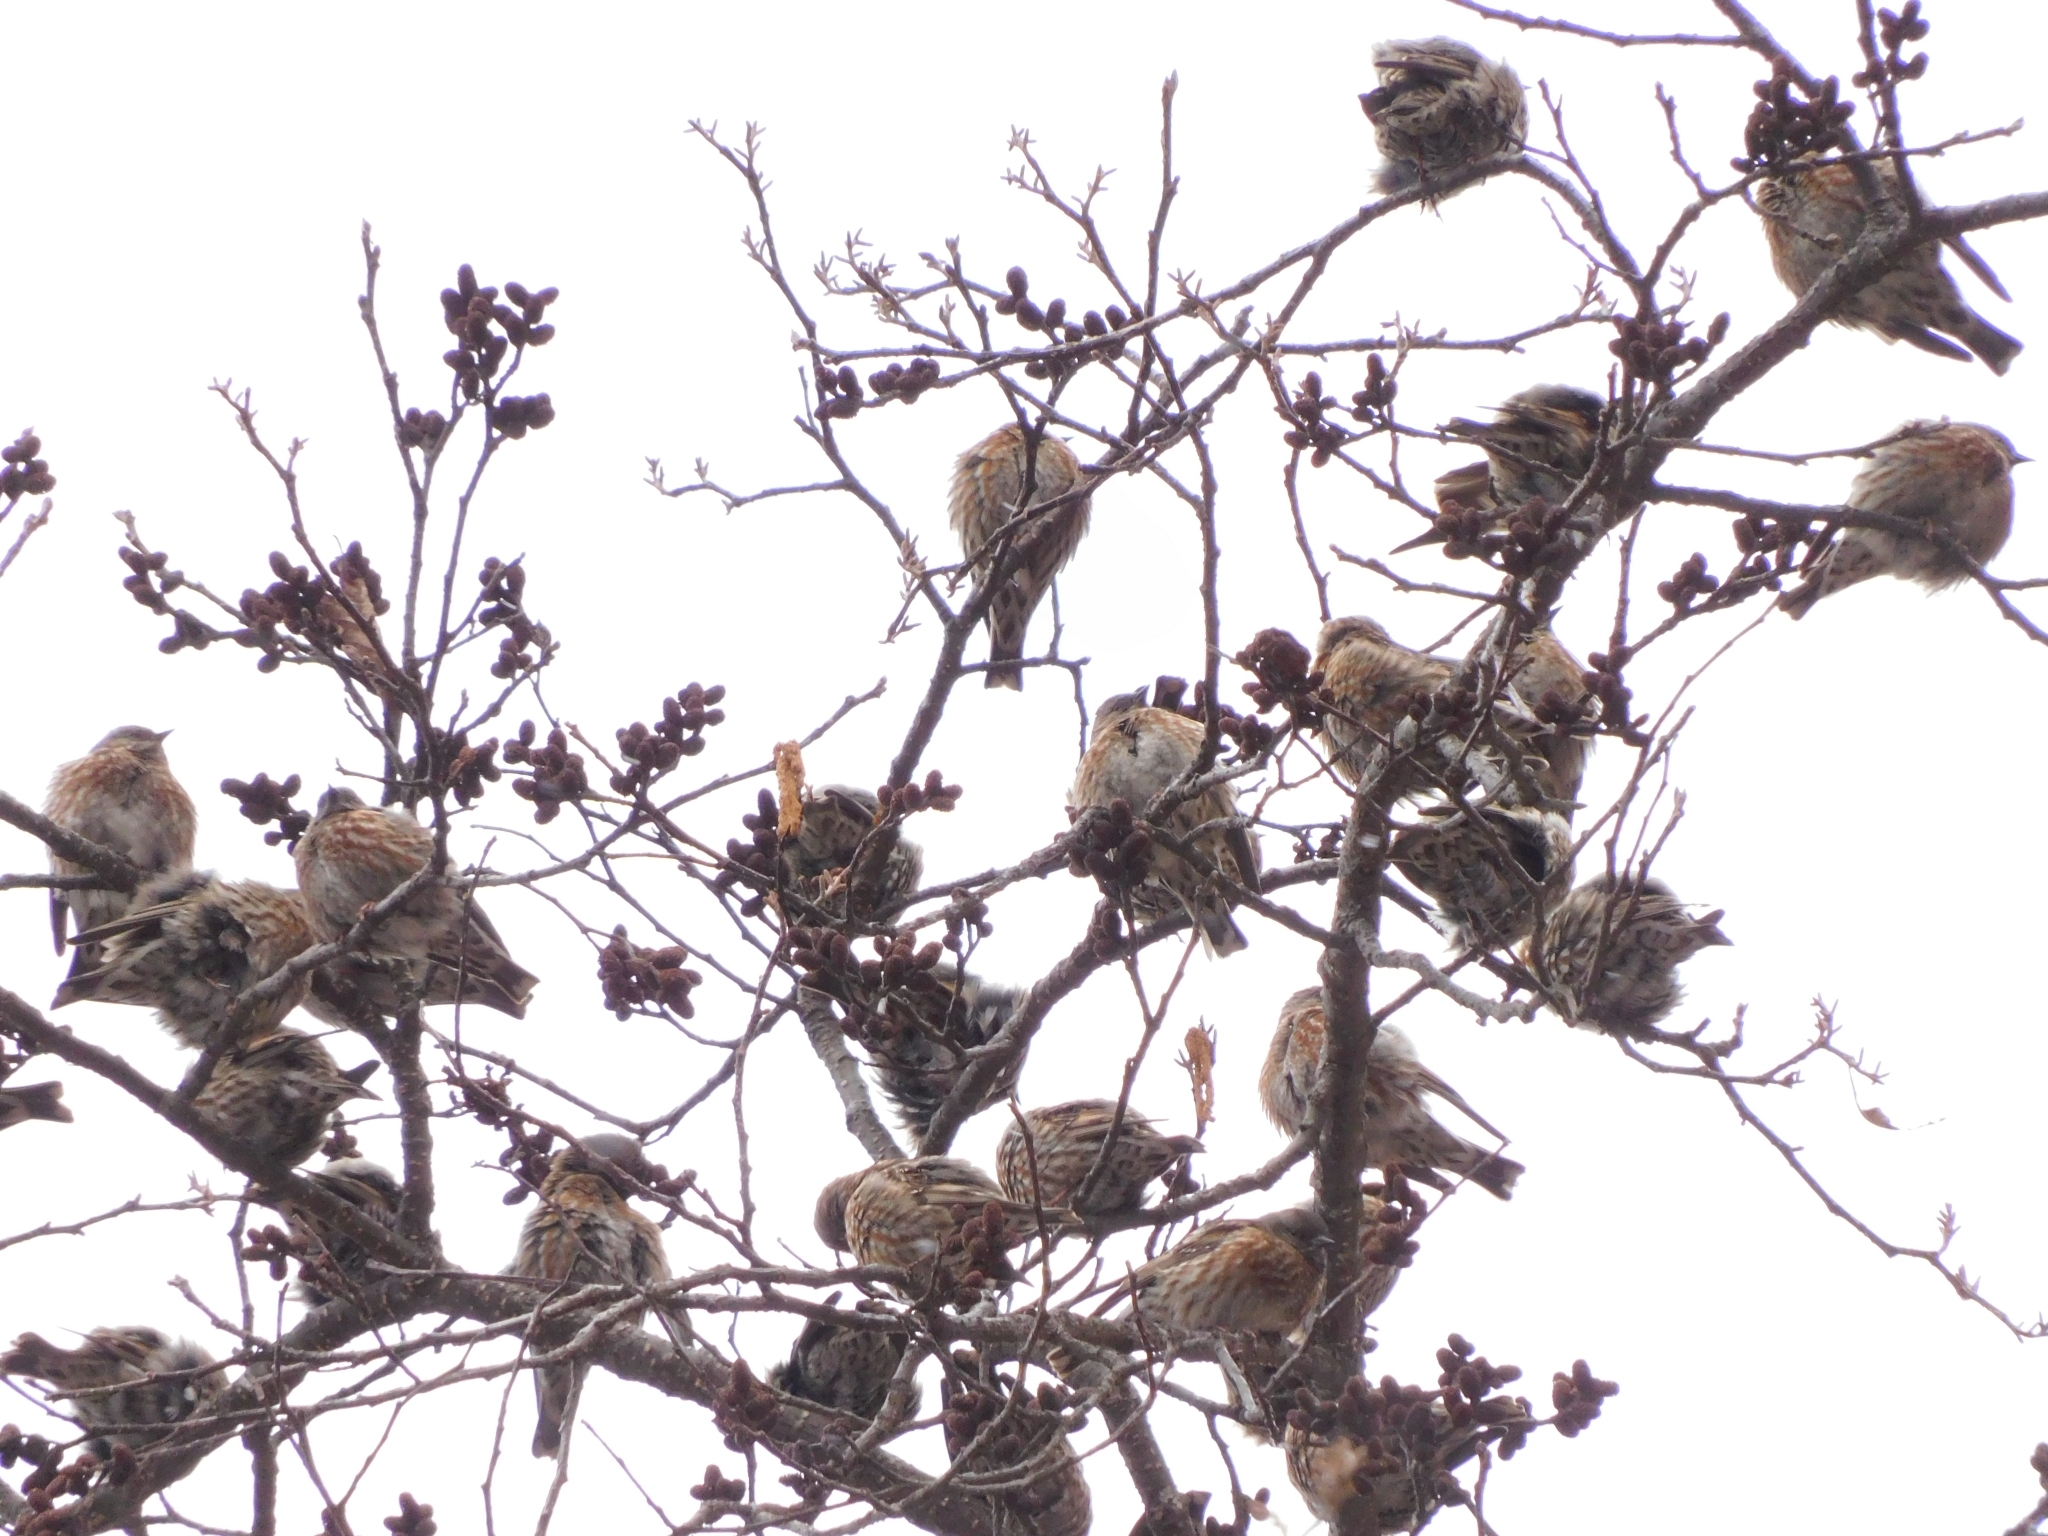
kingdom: Animalia
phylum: Chordata
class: Aves
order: Passeriformes
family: Prunellidae
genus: Prunella
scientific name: Prunella collaris
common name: Alpine accentor
